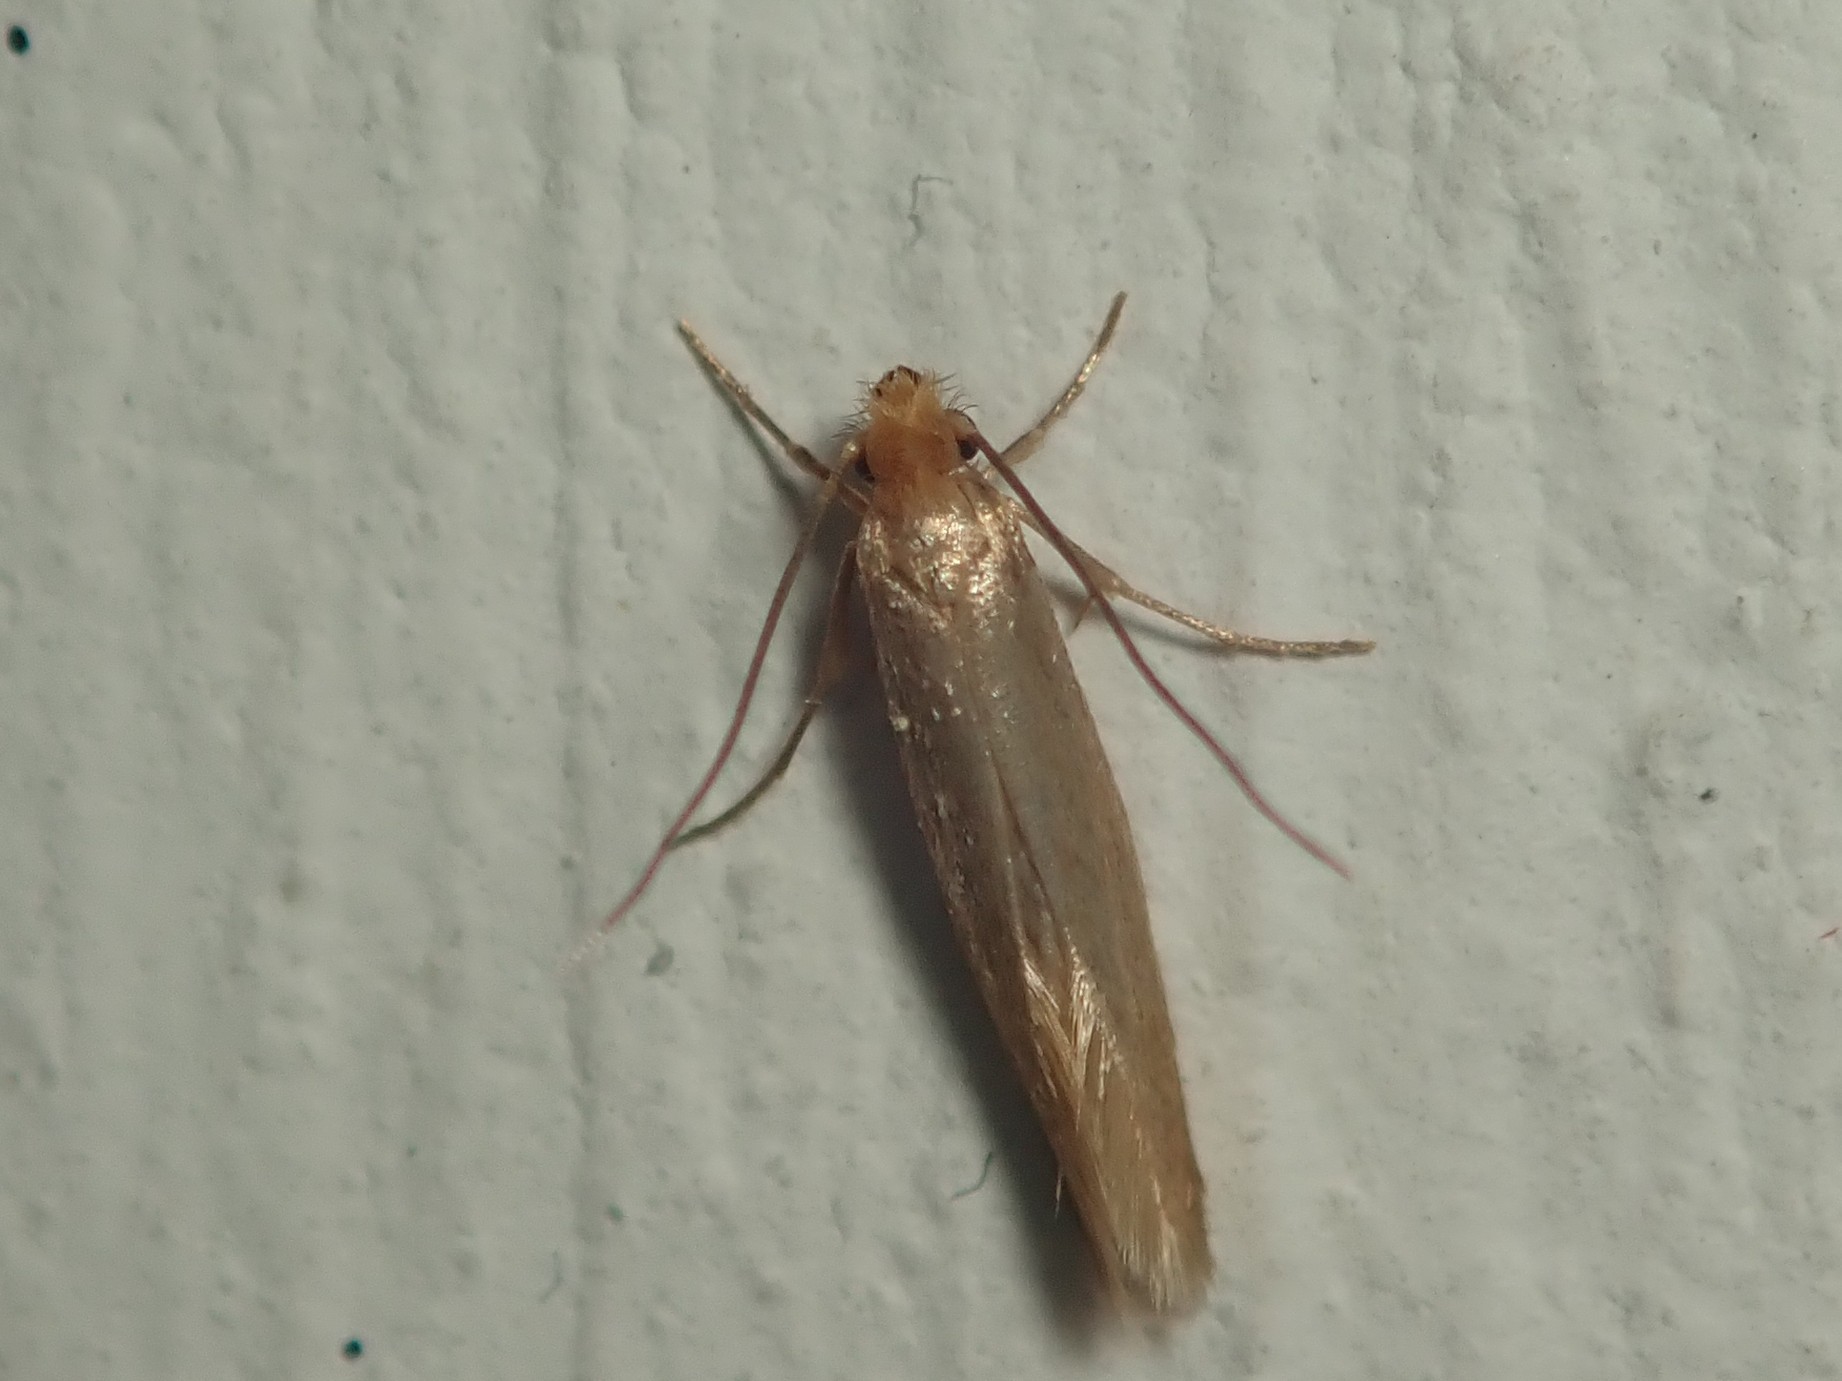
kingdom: Animalia
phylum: Arthropoda
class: Insecta
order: Lepidoptera
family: Tineidae
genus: Tineola
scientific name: Tineola bisselliella
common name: Webbing clothes moth
